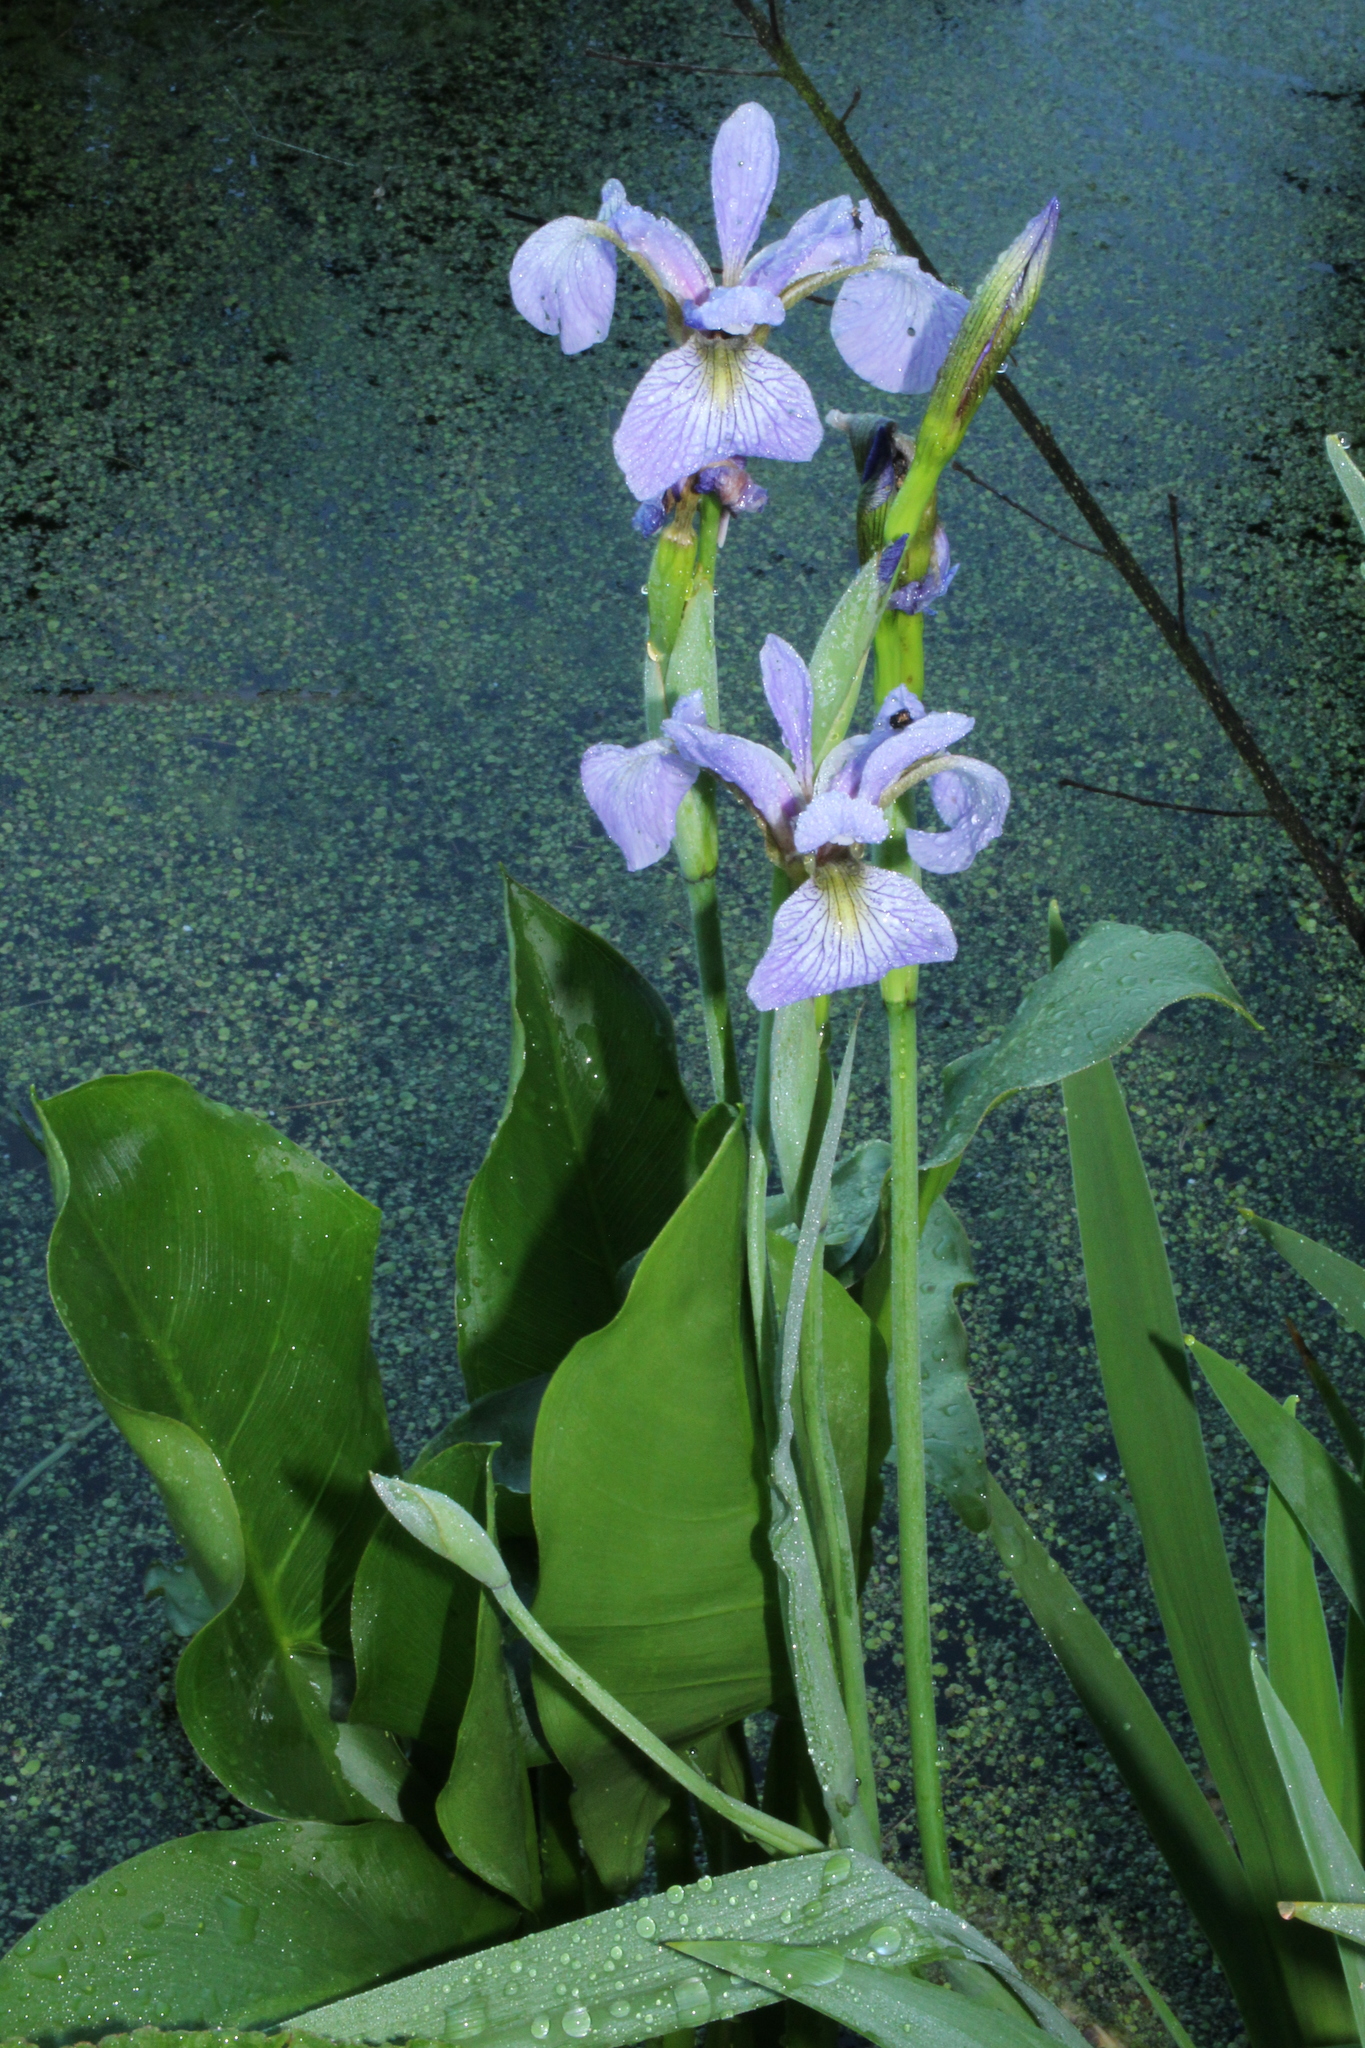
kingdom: Plantae
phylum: Tracheophyta
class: Liliopsida
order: Asparagales
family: Iridaceae
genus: Iris
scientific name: Iris versicolor
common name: Purple iris
